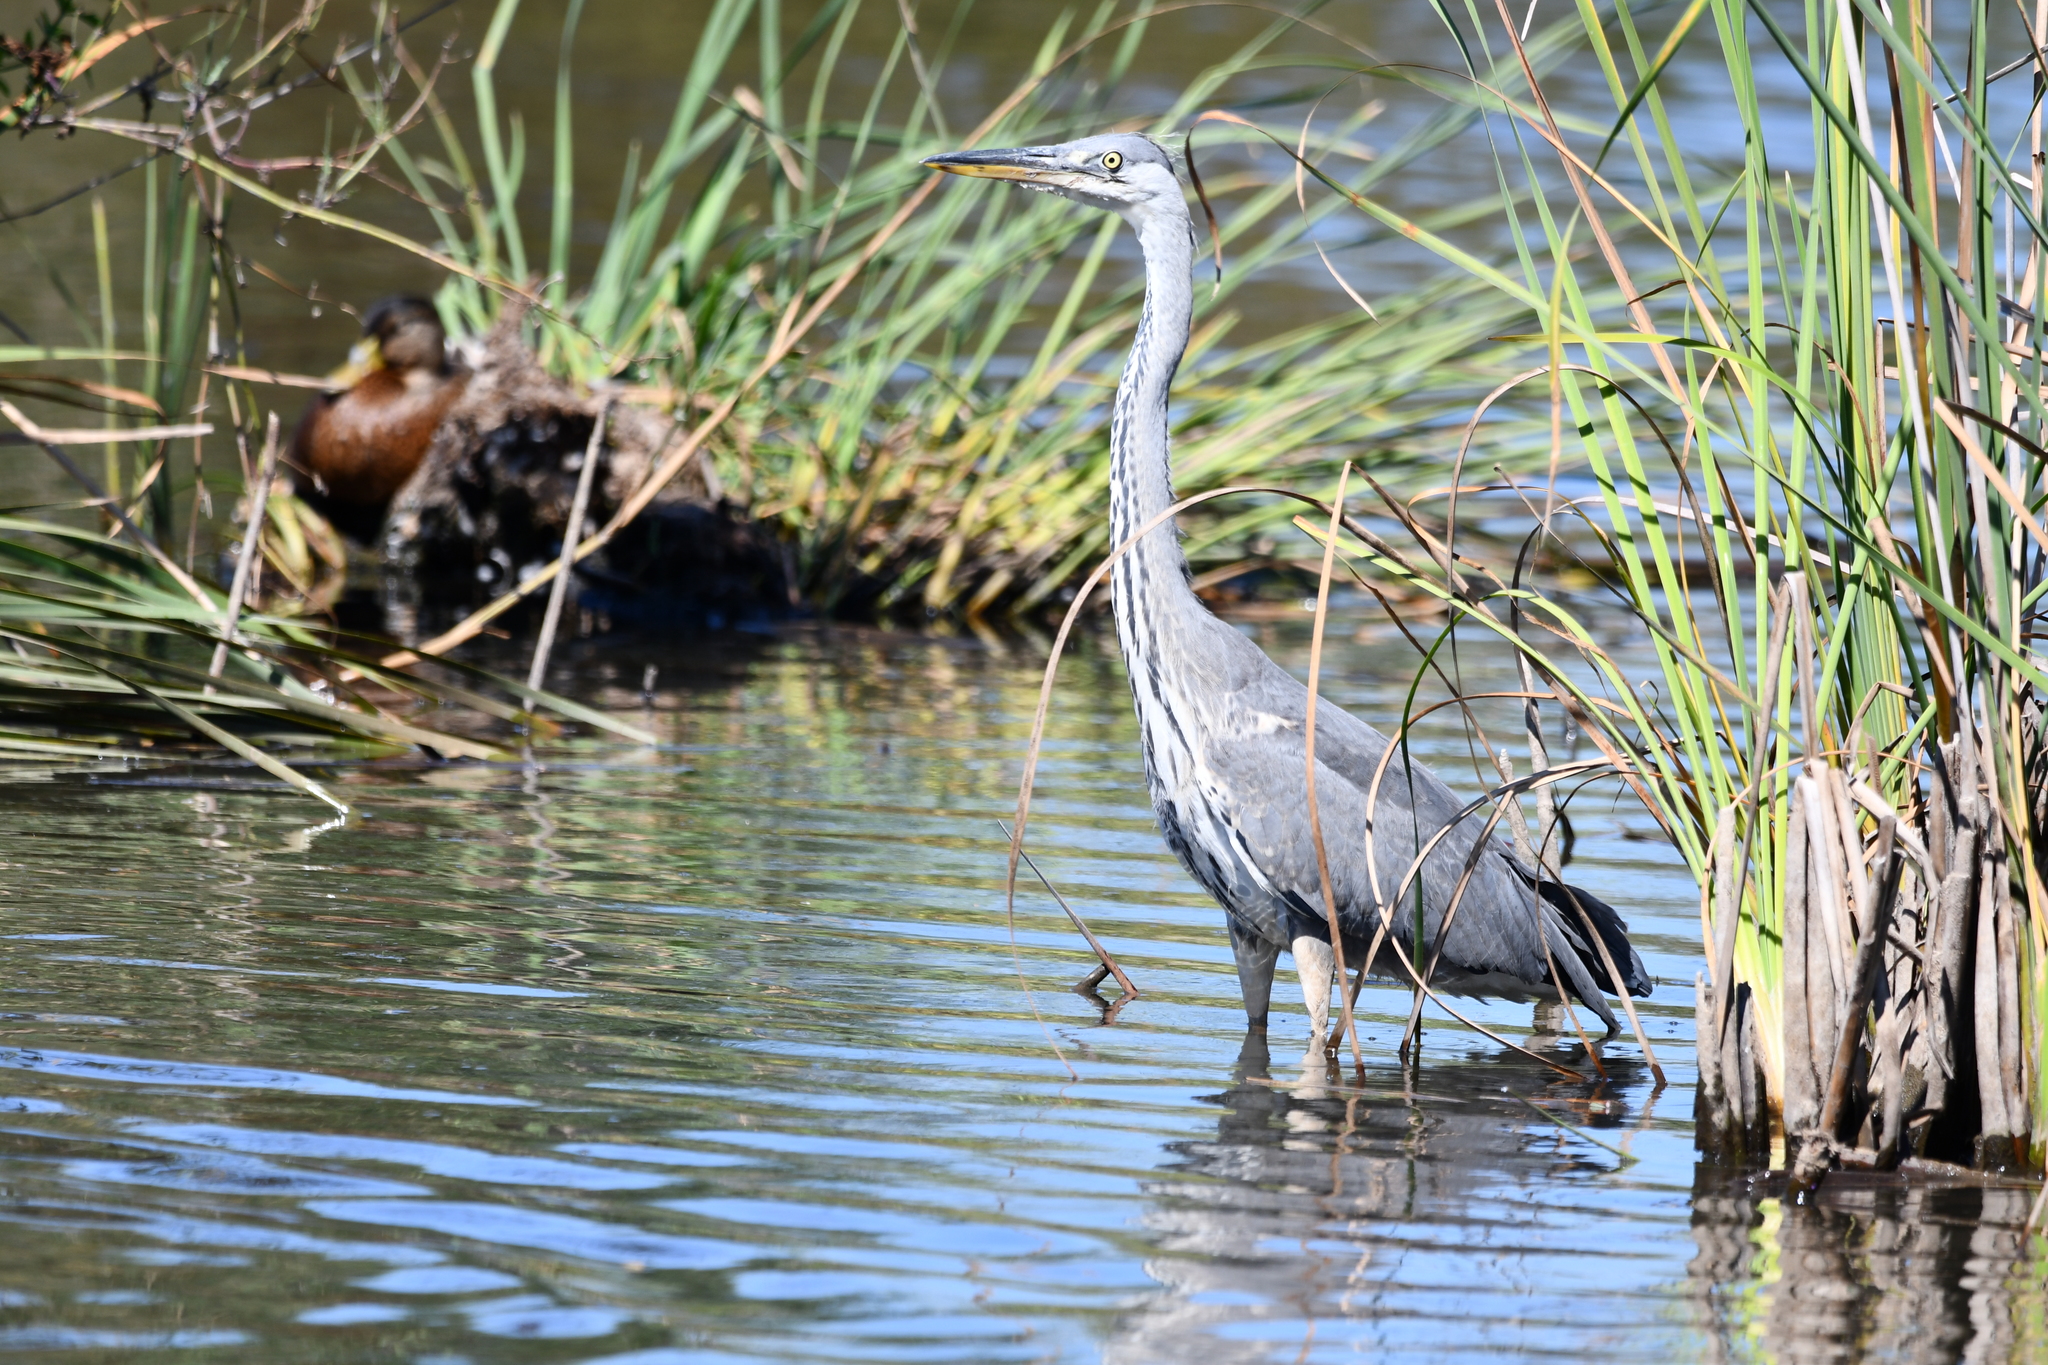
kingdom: Animalia
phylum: Chordata
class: Aves
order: Pelecaniformes
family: Ardeidae
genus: Ardea
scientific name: Ardea cinerea
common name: Grey heron
